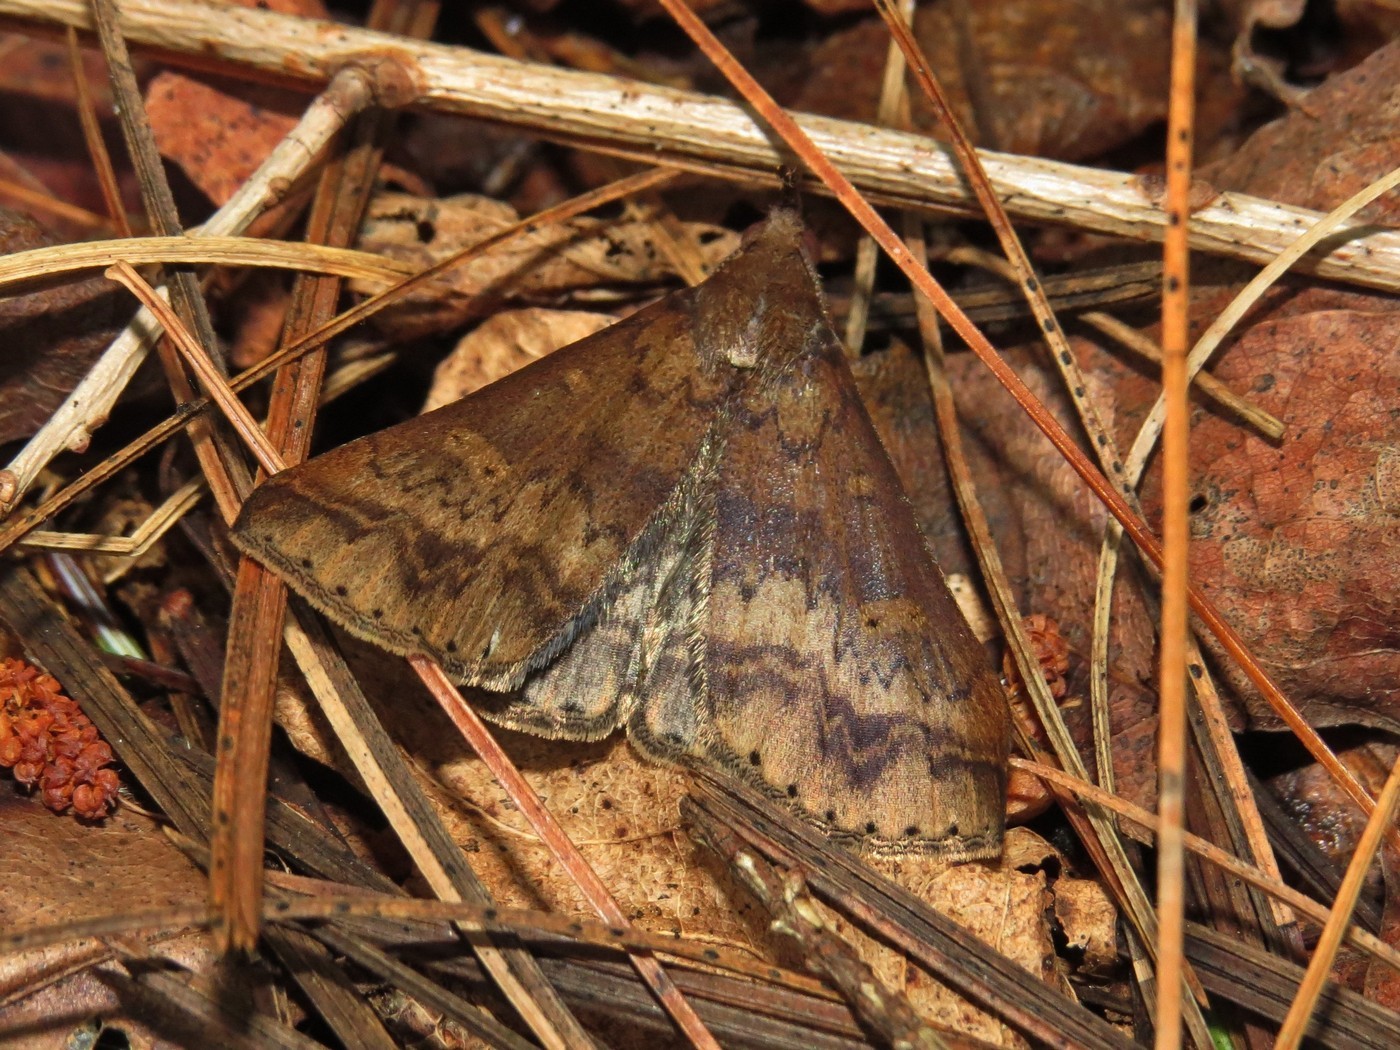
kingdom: Animalia
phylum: Arthropoda
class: Insecta
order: Lepidoptera
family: Erebidae
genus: Renia
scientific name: Renia discoloralis
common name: Discolored renia moth
